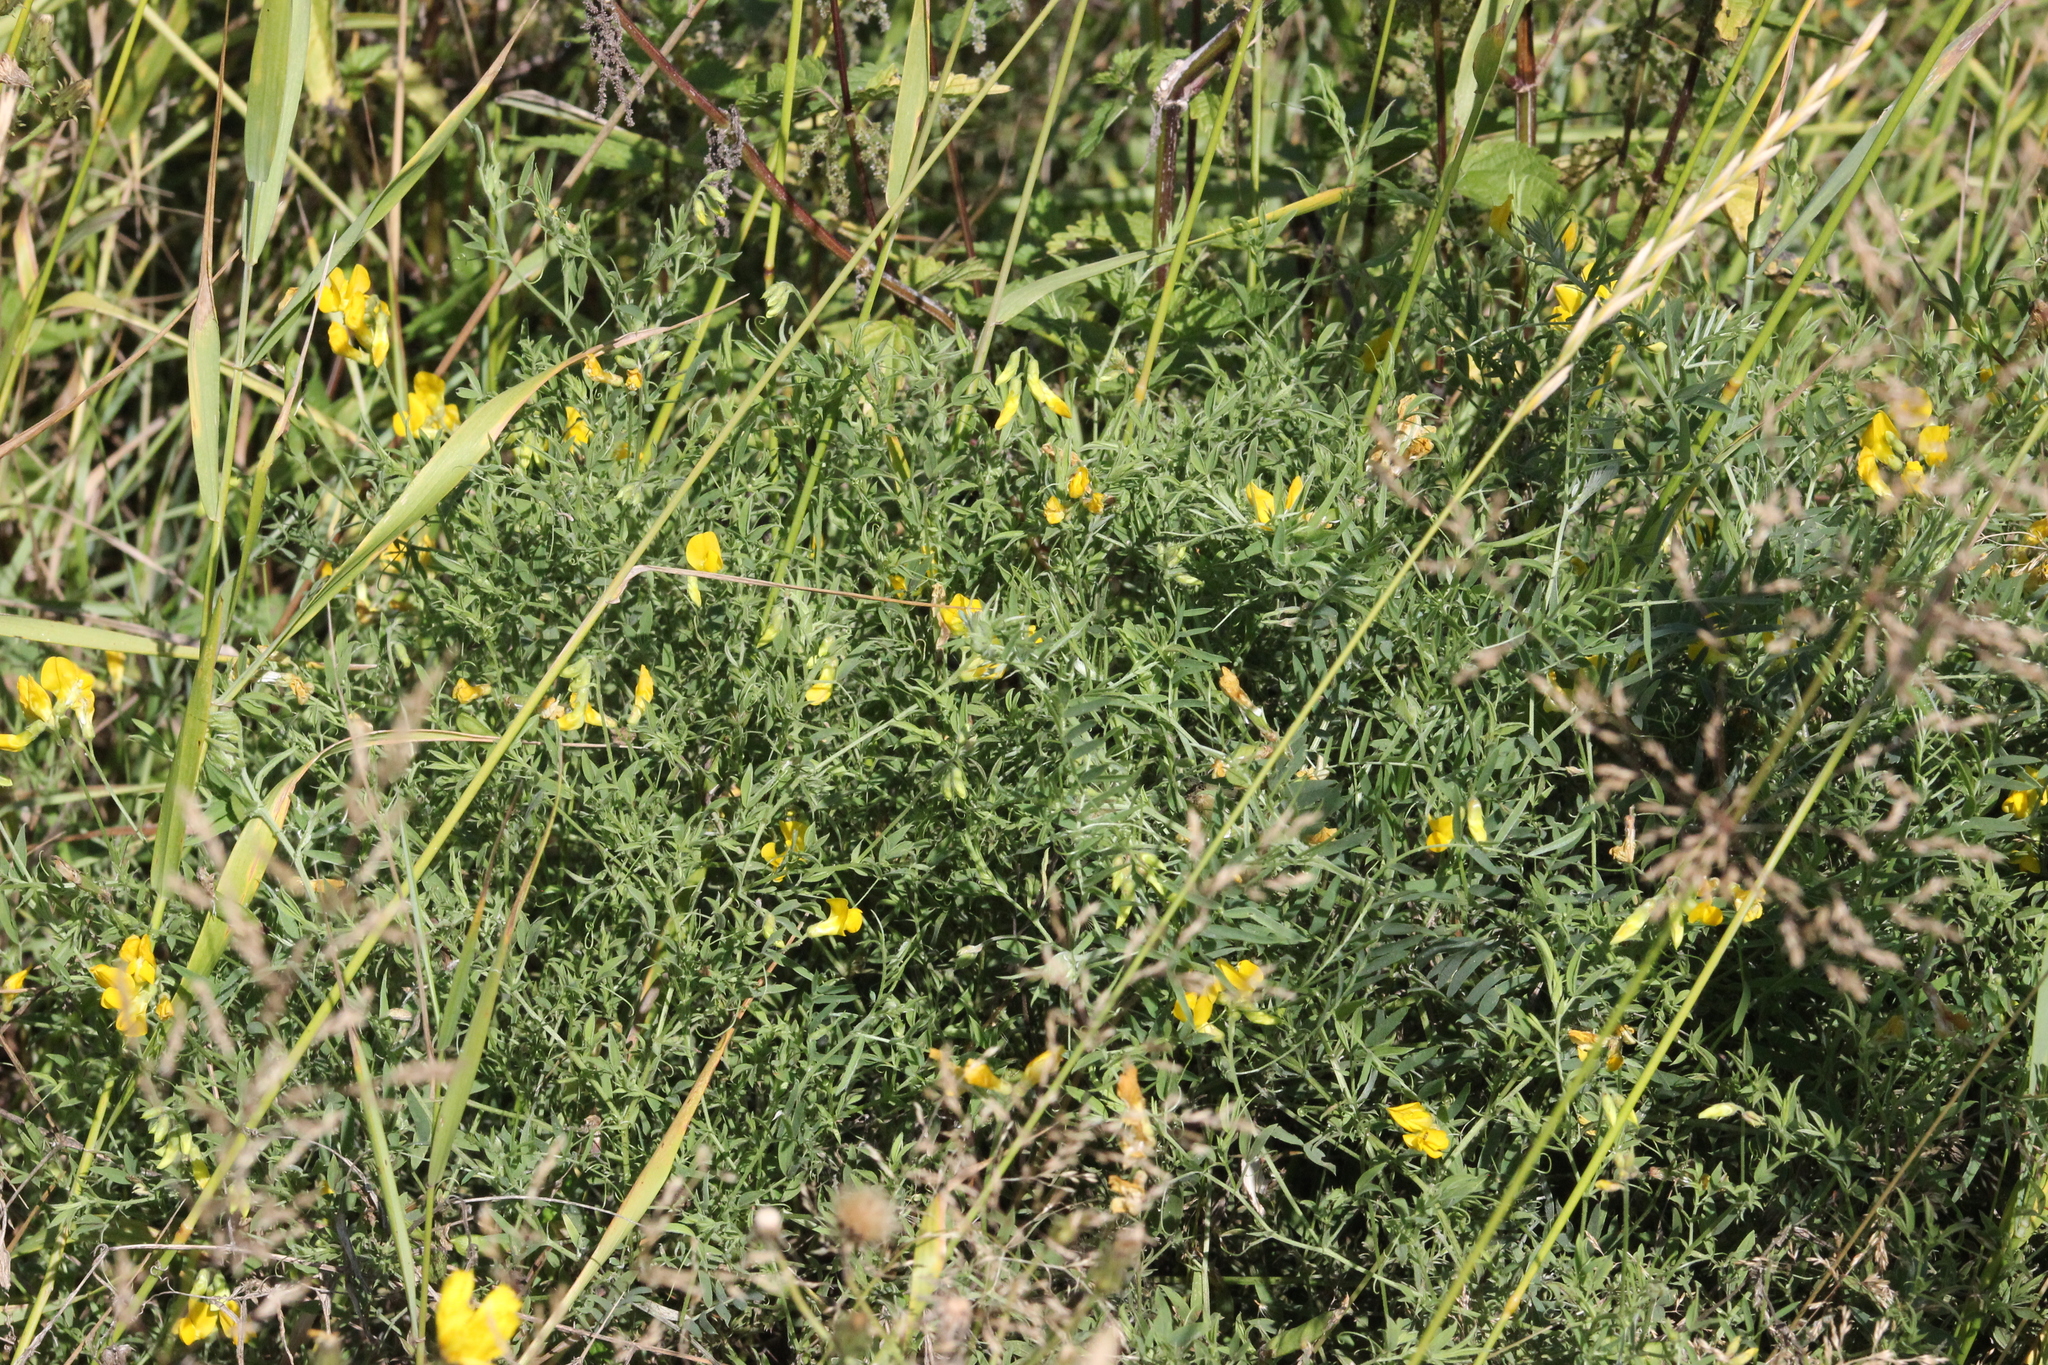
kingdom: Plantae
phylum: Tracheophyta
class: Magnoliopsida
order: Fabales
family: Fabaceae
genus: Lathyrus
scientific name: Lathyrus pratensis
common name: Meadow vetchling
